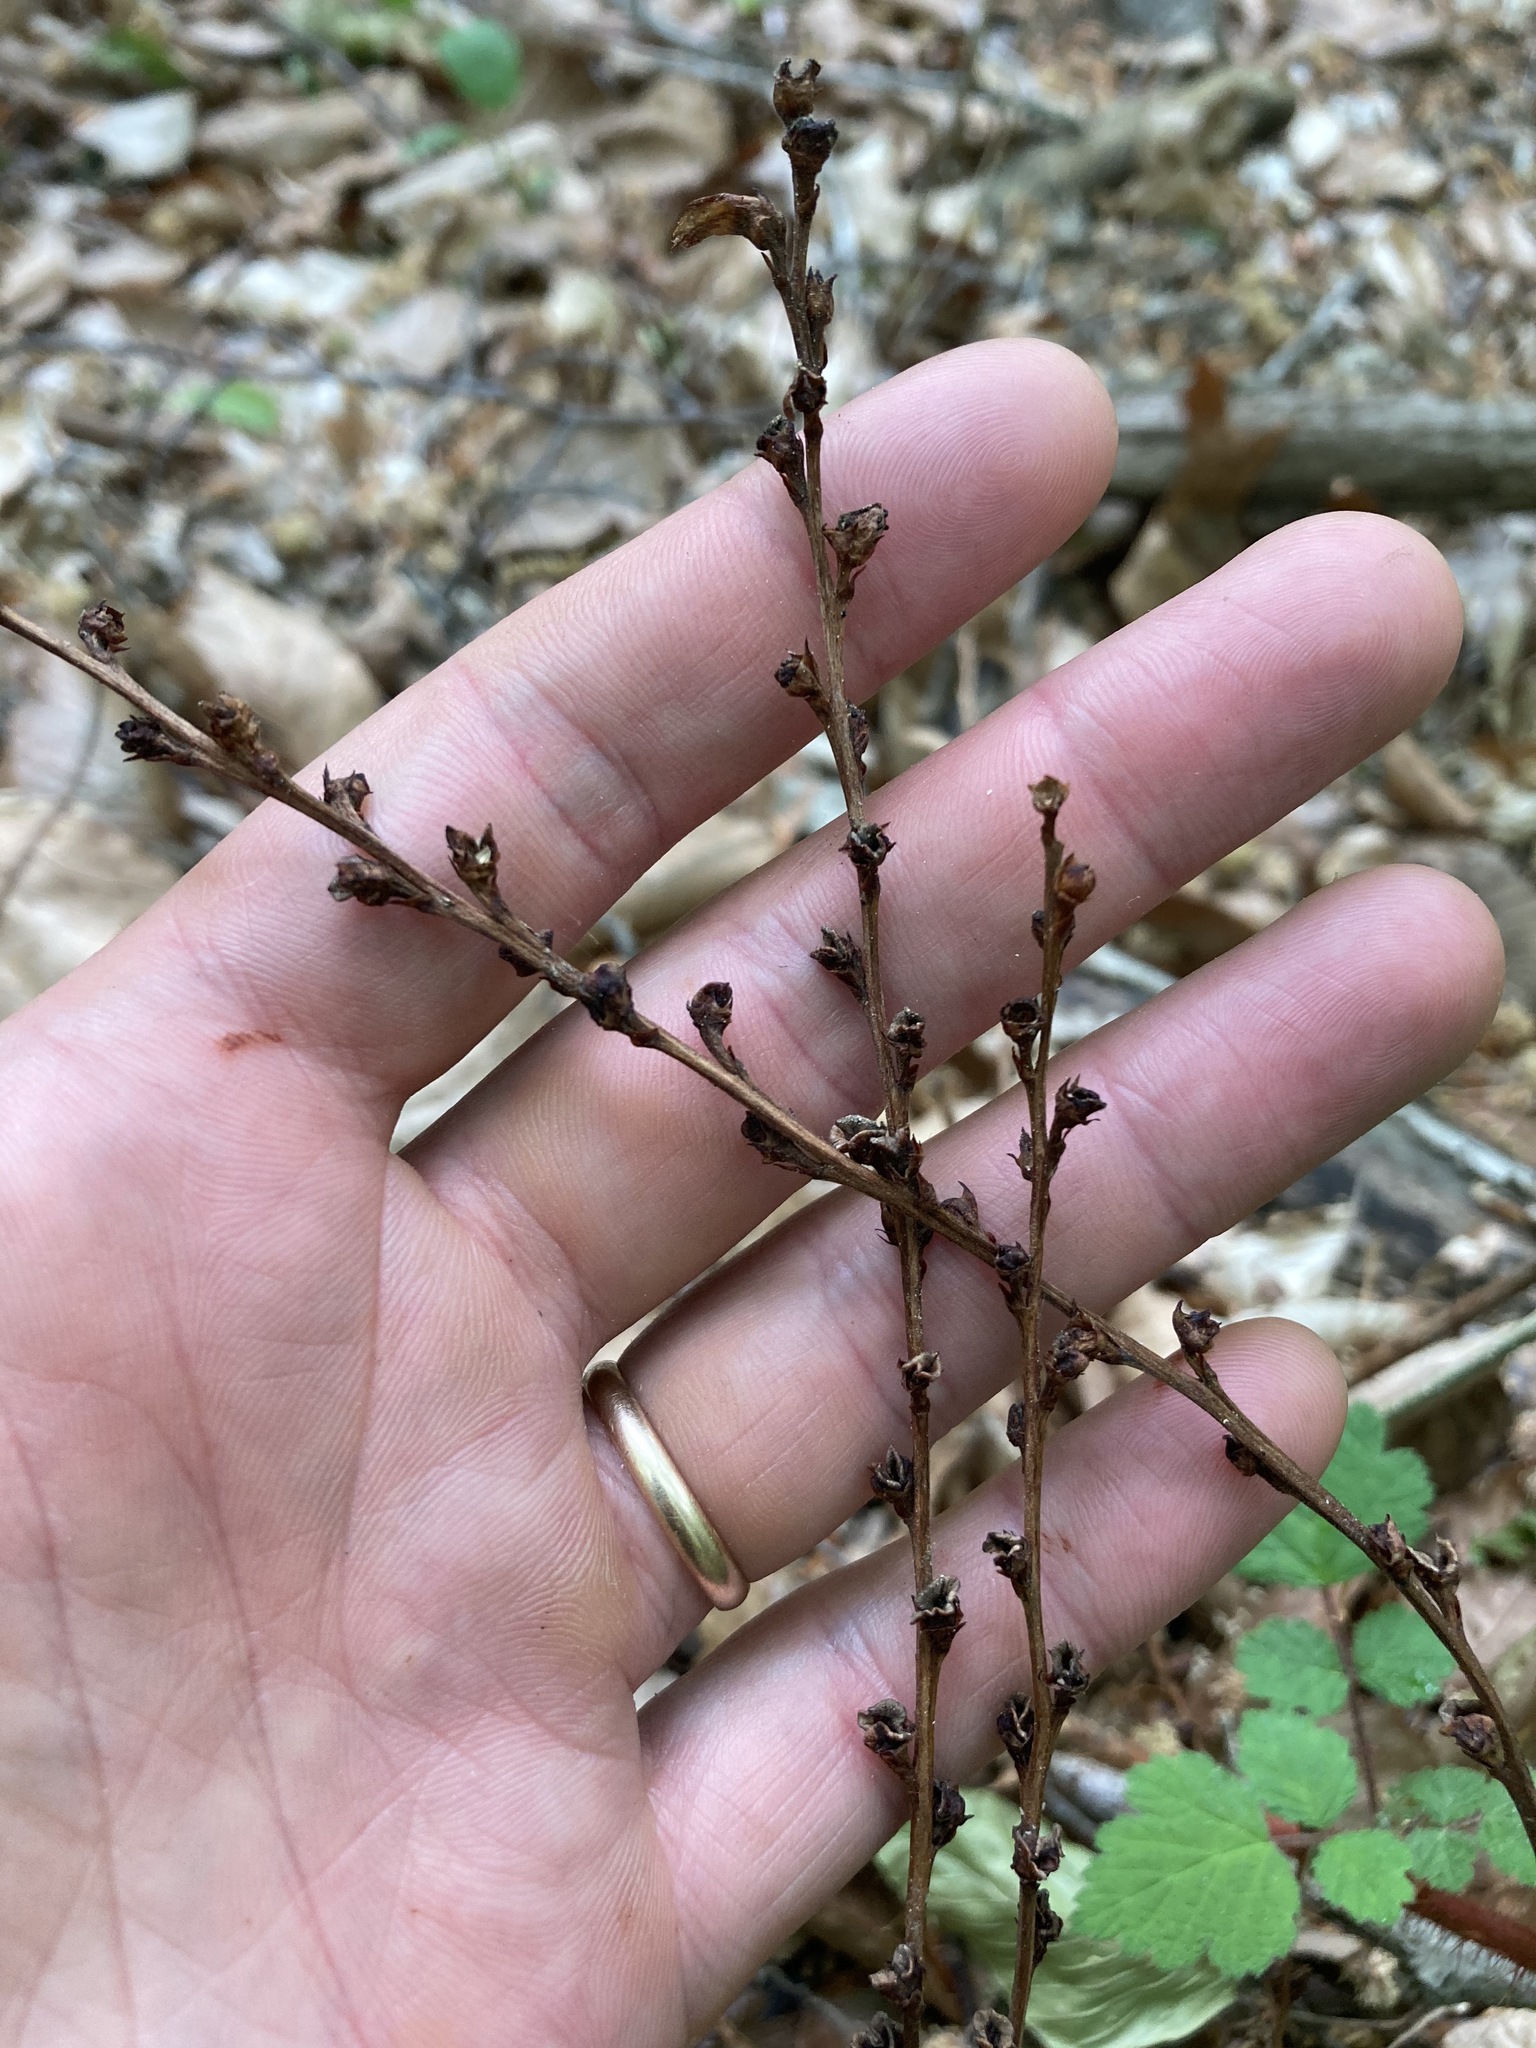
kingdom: Plantae
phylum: Tracheophyta
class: Magnoliopsida
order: Lamiales
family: Orobanchaceae
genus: Epifagus
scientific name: Epifagus virginiana
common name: Beechdrops
